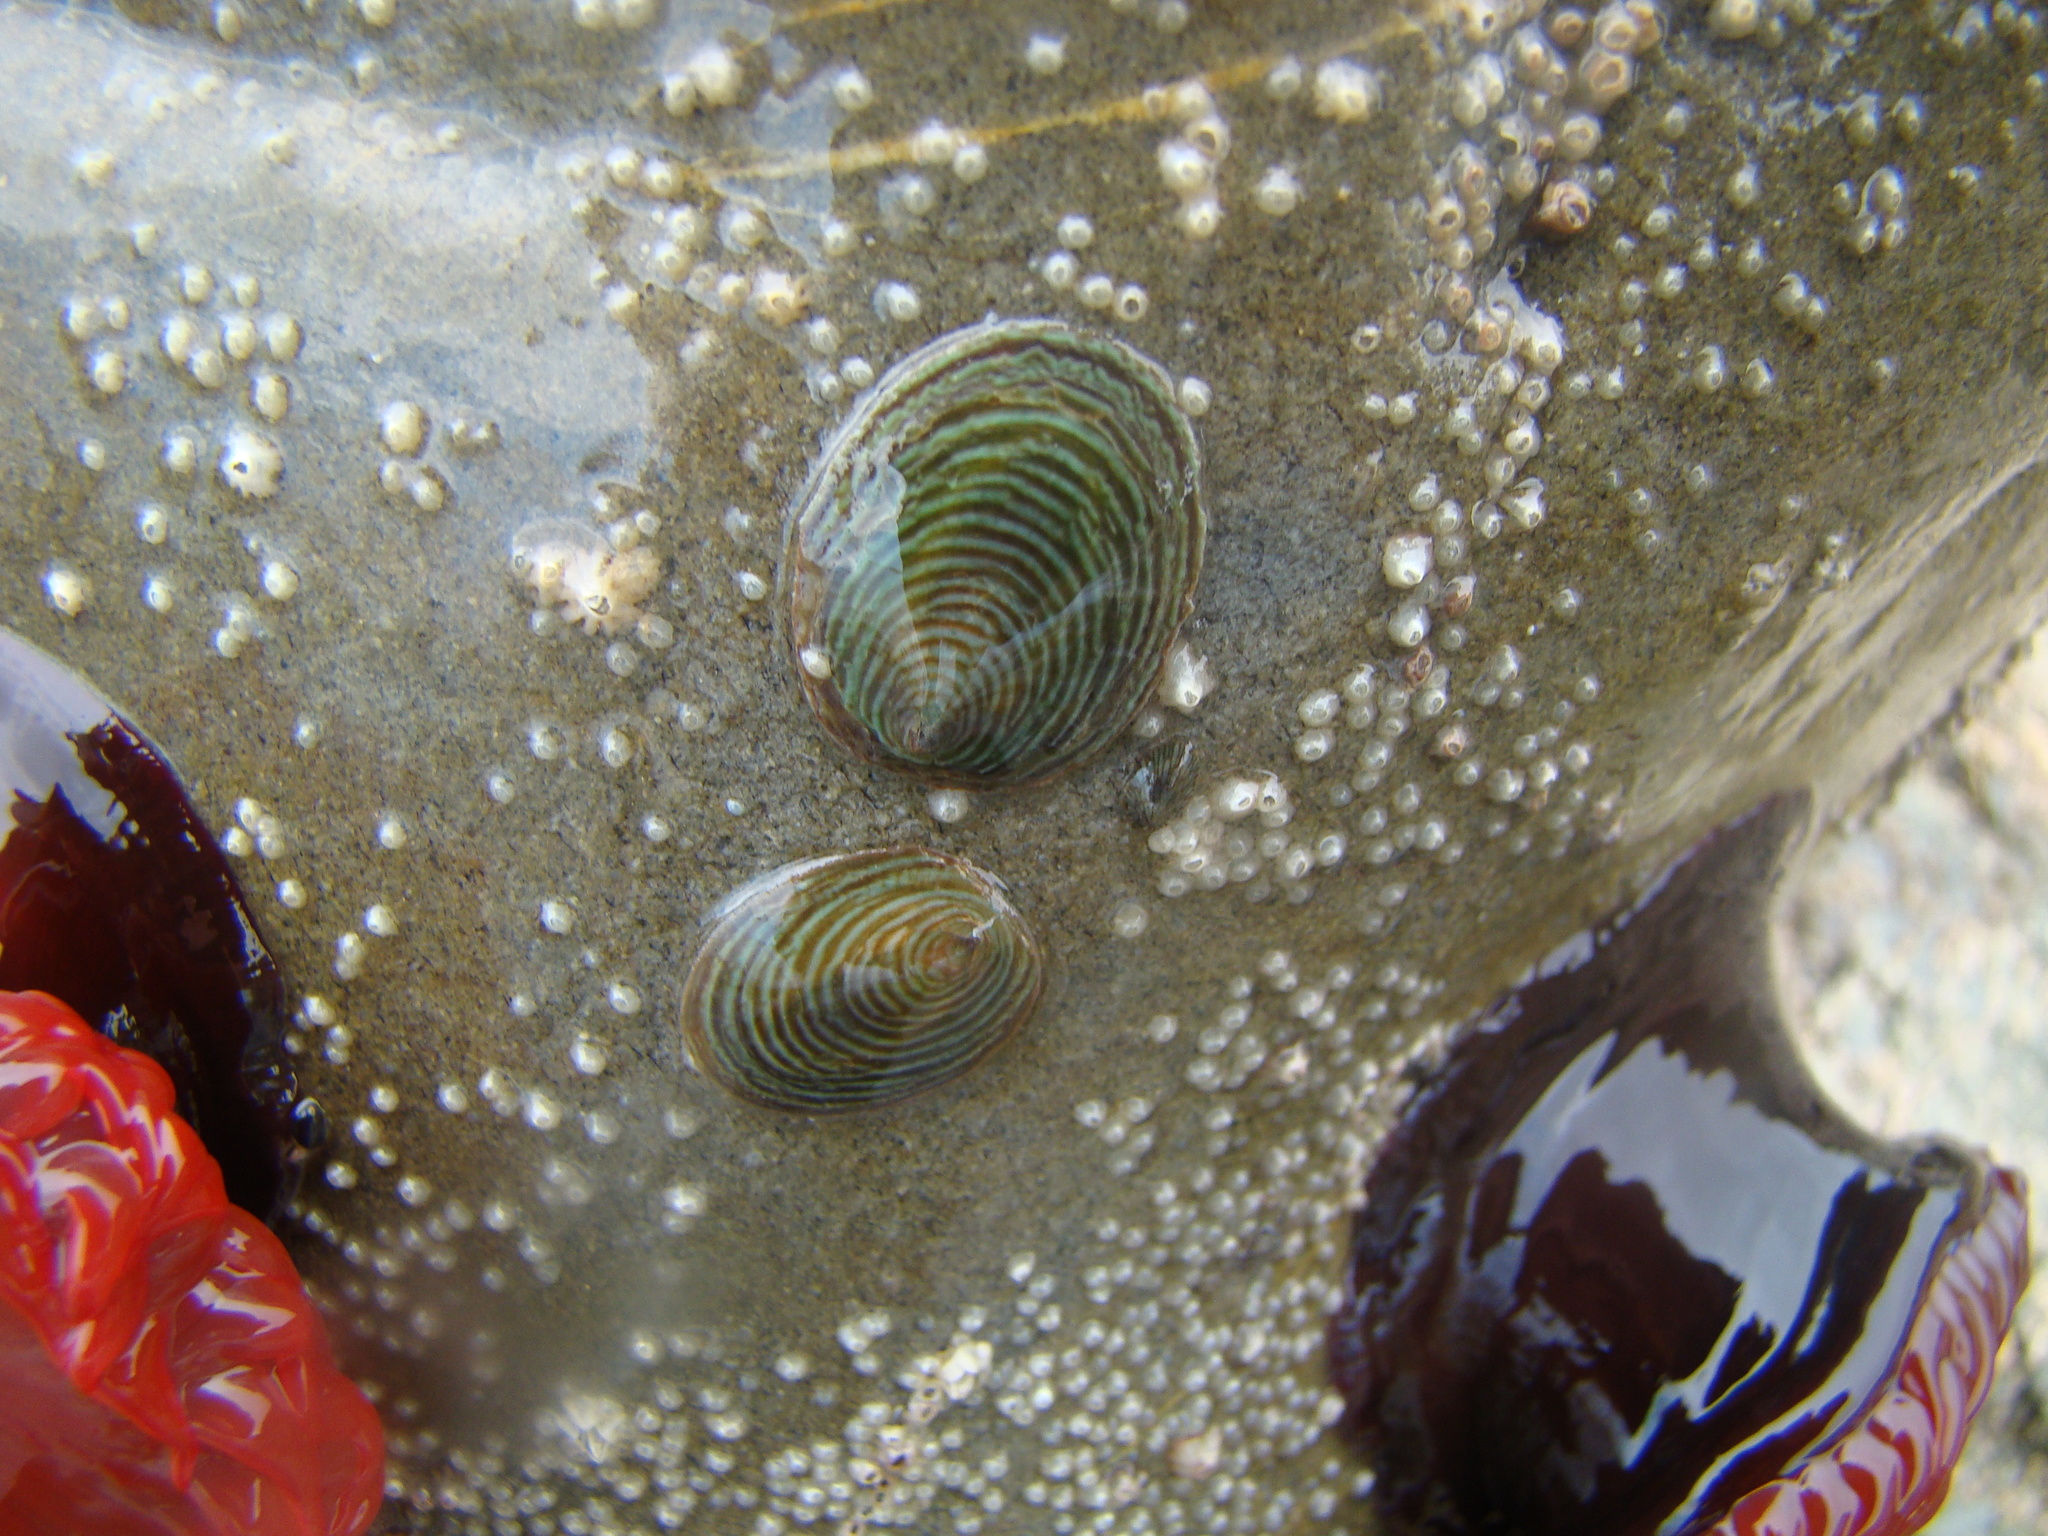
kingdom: Animalia
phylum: Mollusca
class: Gastropoda
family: Lottiidae
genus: Atalacmea
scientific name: Atalacmea fragilis
